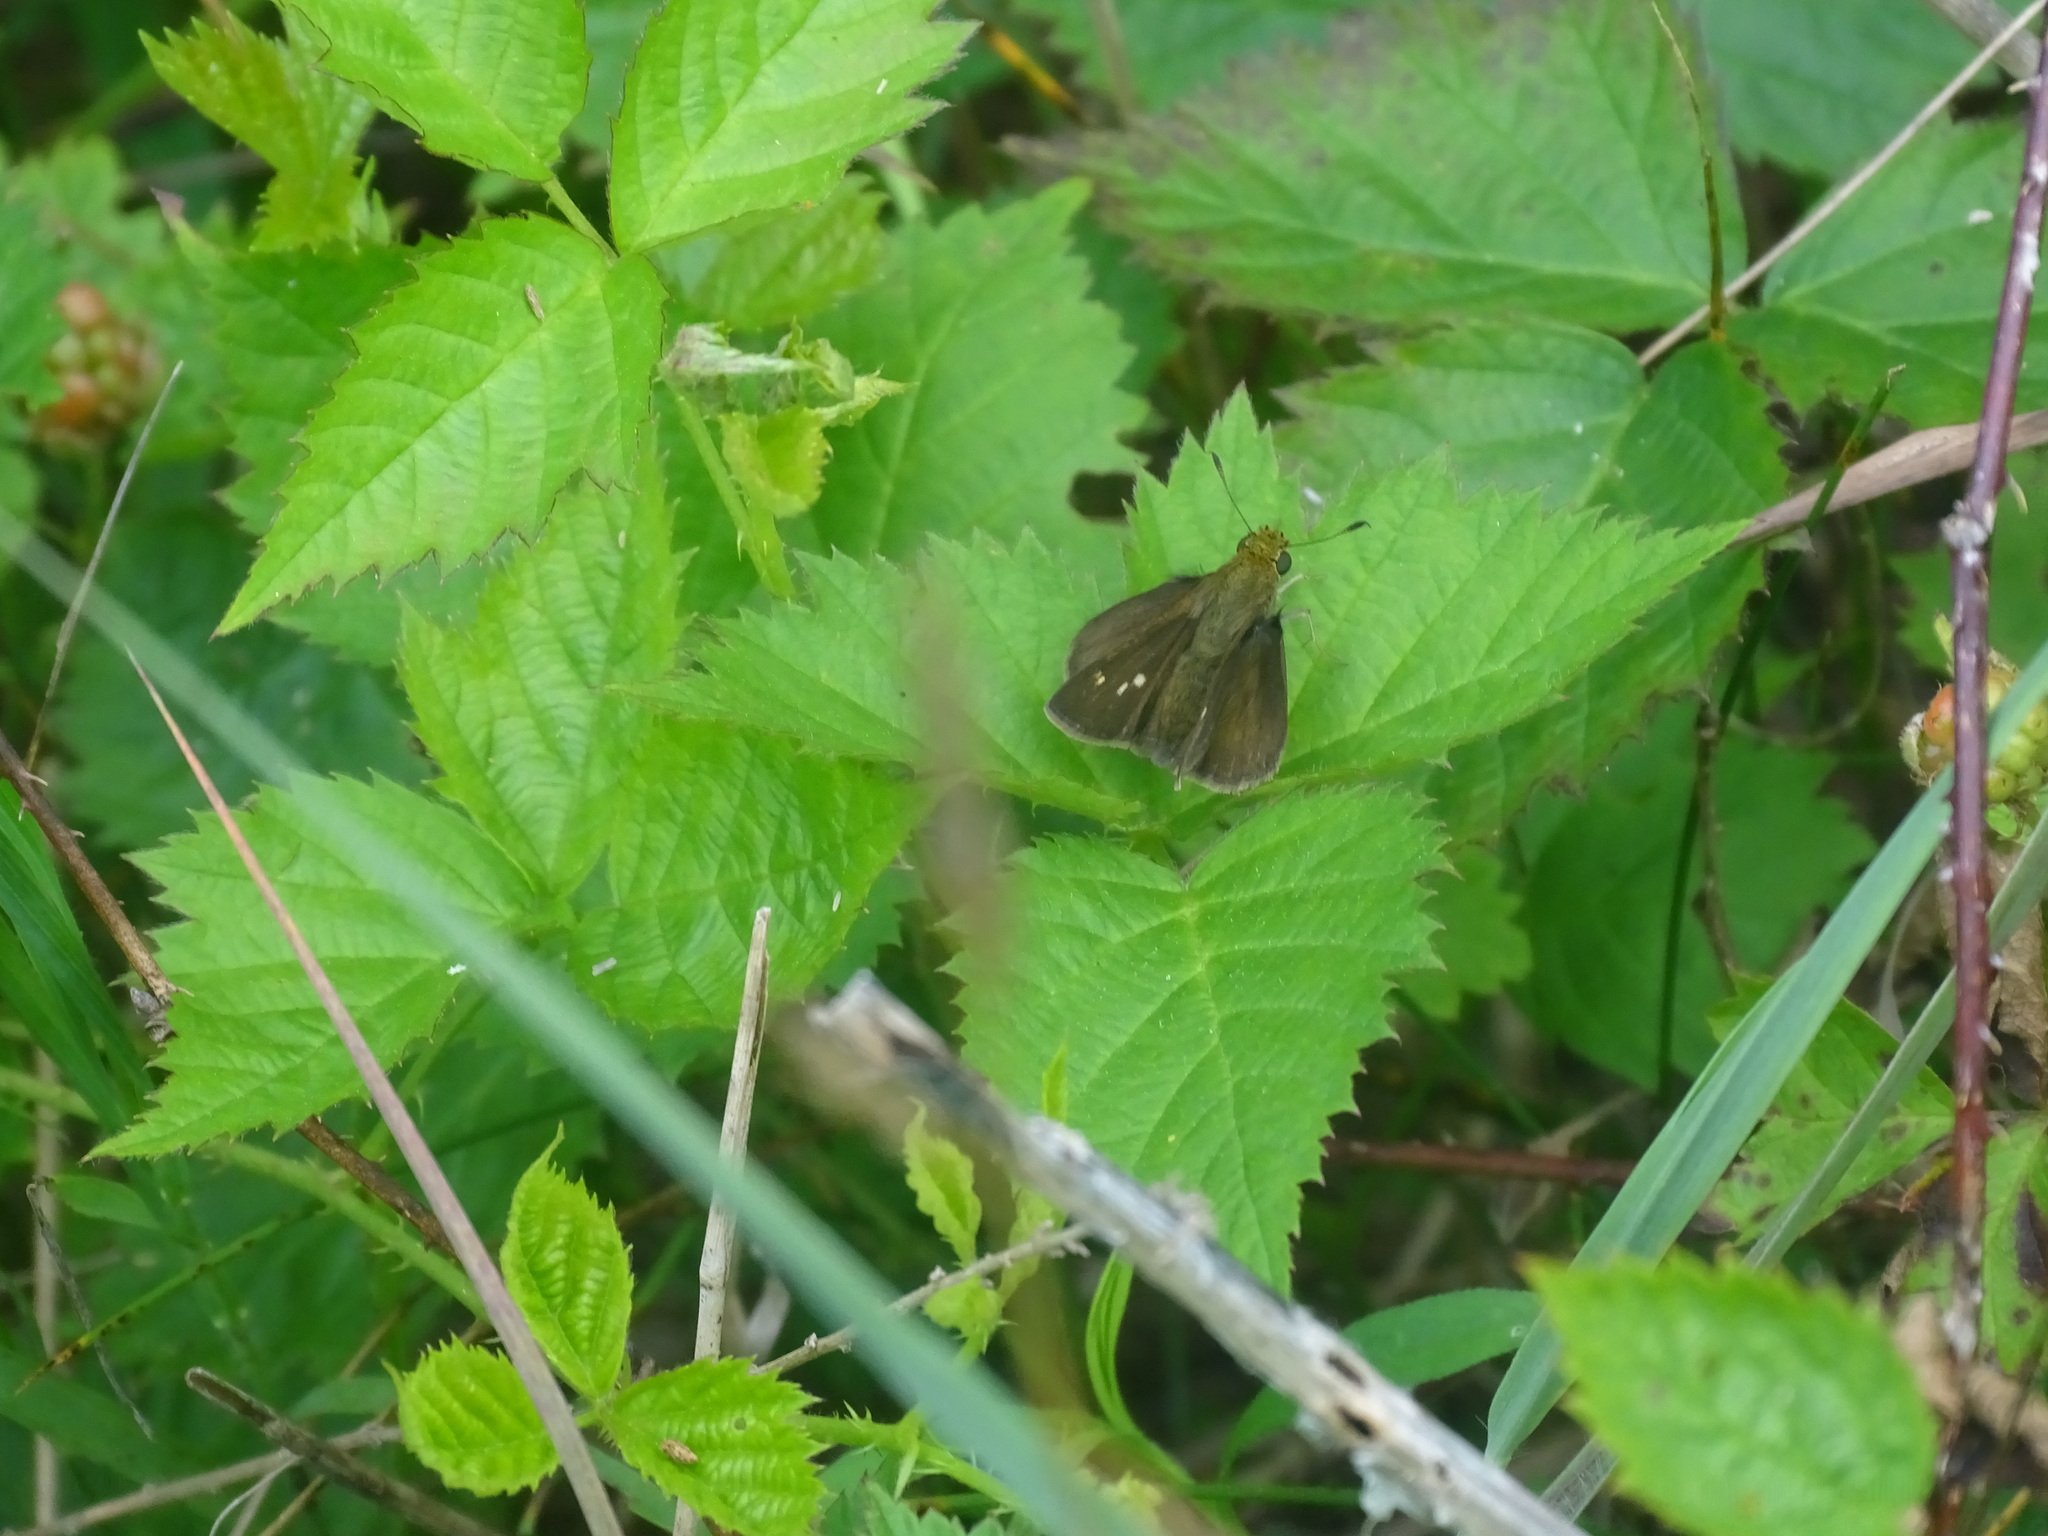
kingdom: Animalia
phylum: Arthropoda
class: Insecta
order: Lepidoptera
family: Hesperiidae
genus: Euphyes
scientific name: Euphyes vestris
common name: Dun skipper
